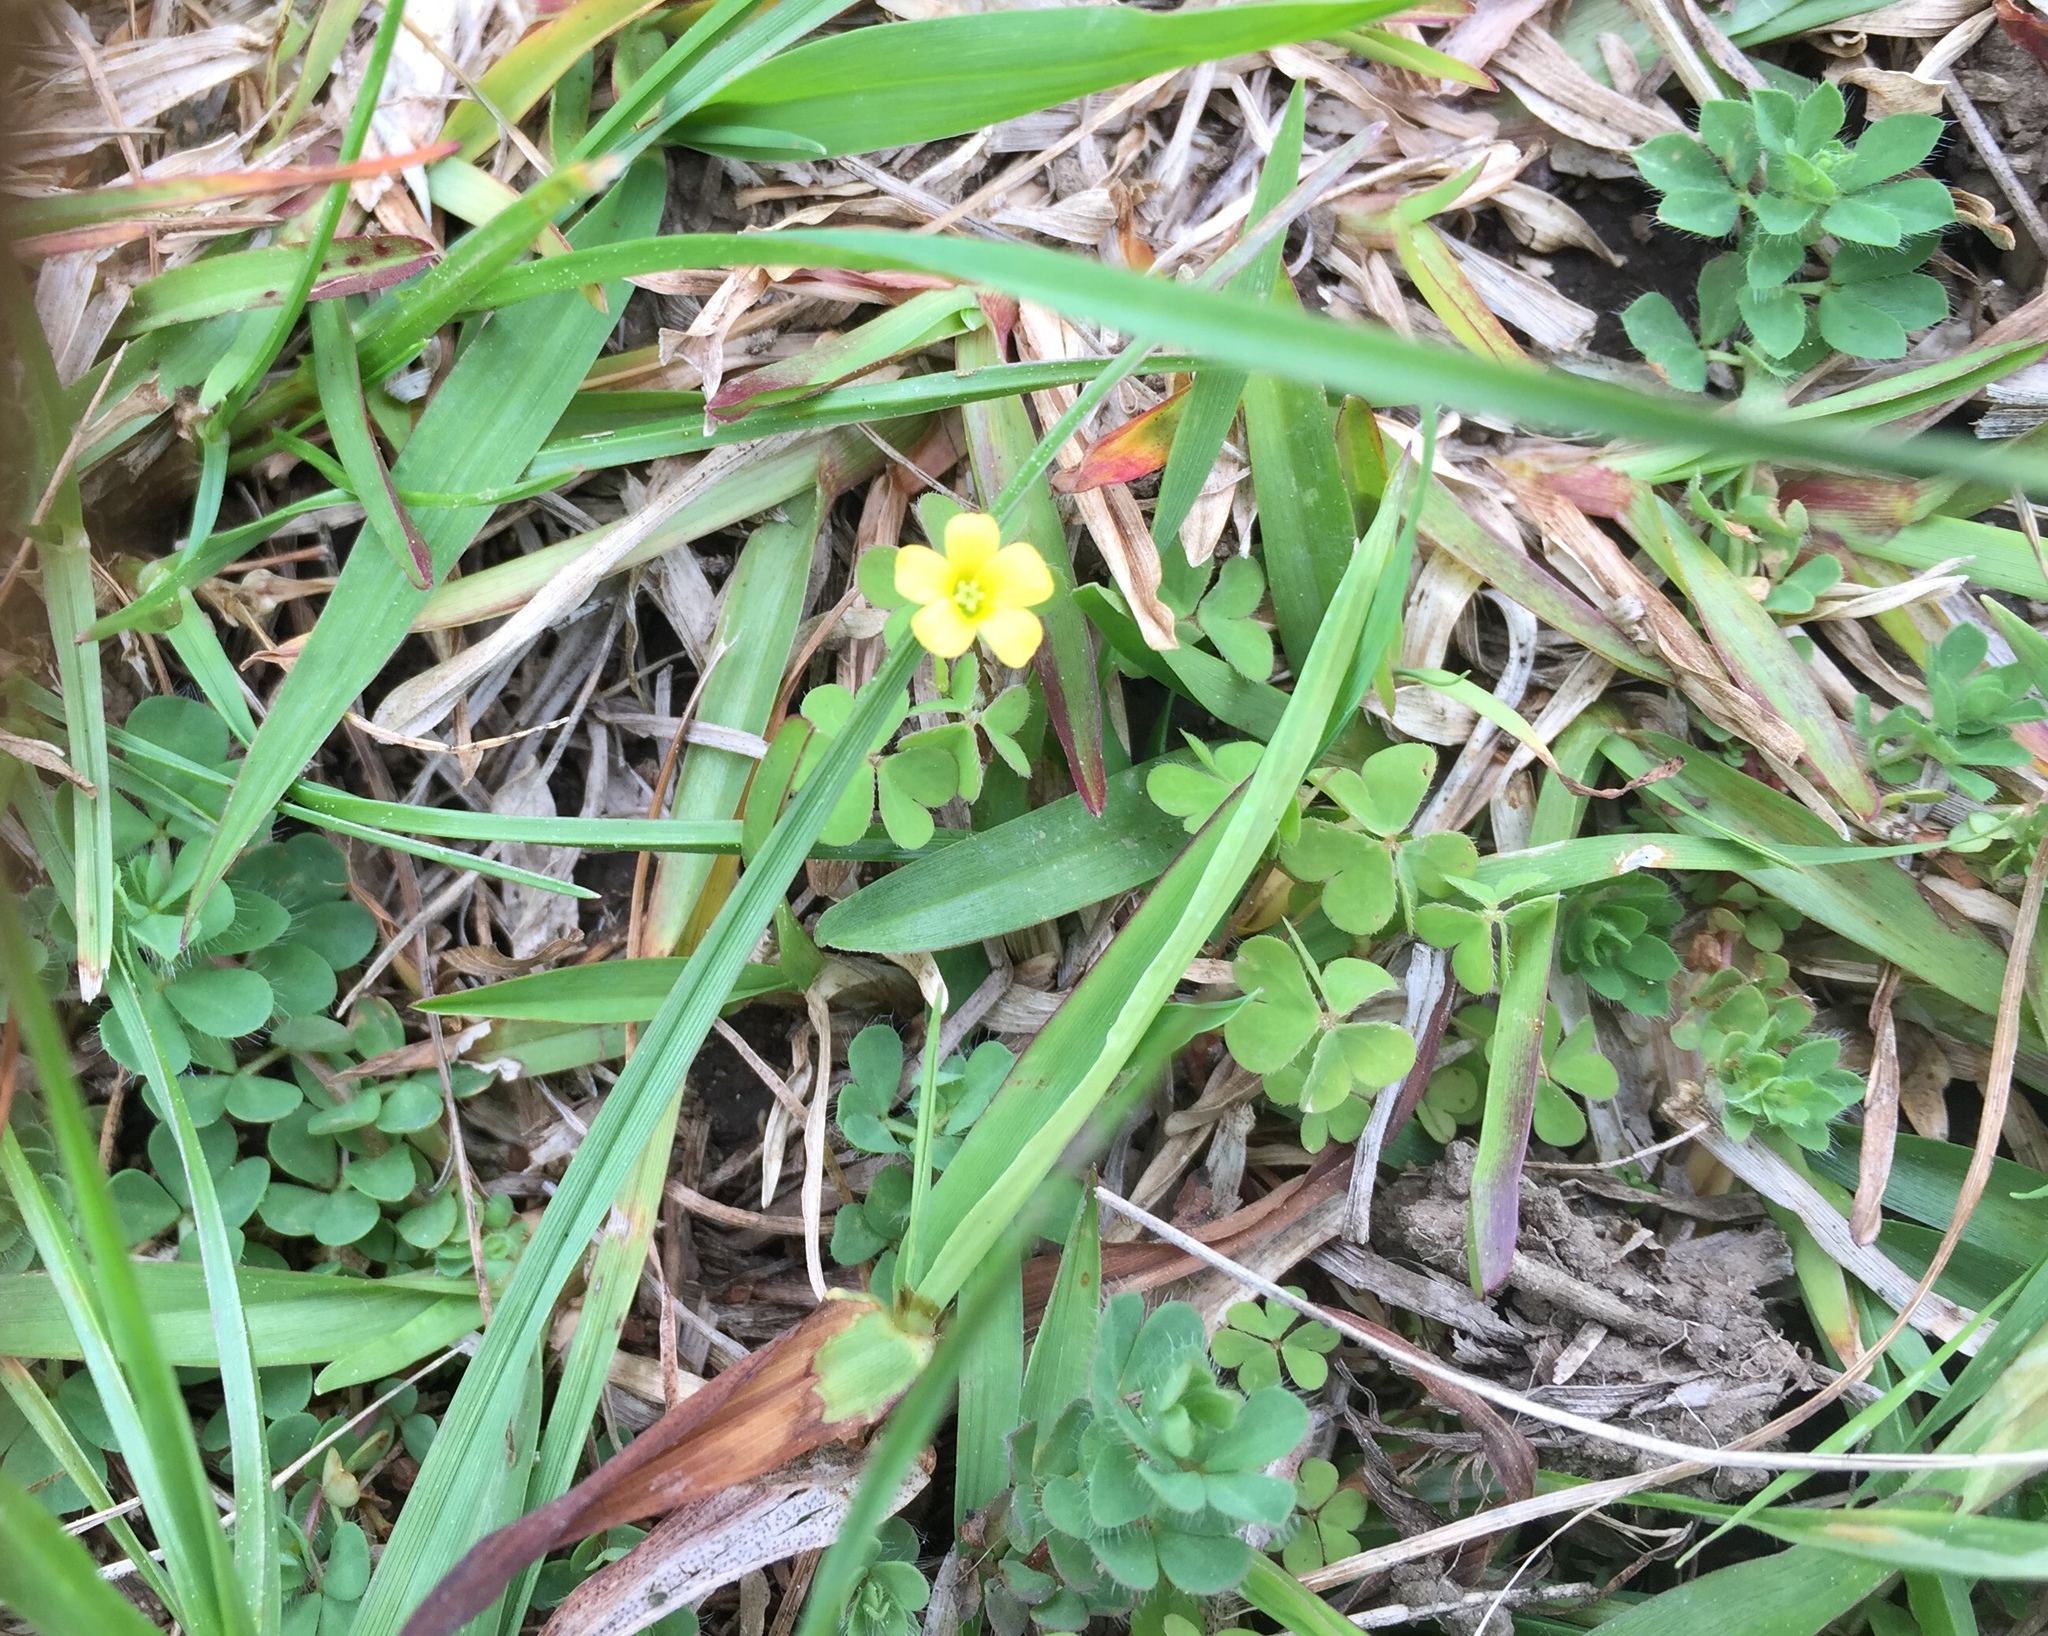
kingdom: Plantae
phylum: Tracheophyta
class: Magnoliopsida
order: Oxalidales
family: Oxalidaceae
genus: Oxalis
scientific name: Oxalis exilis
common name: Least yellow-sorrel
